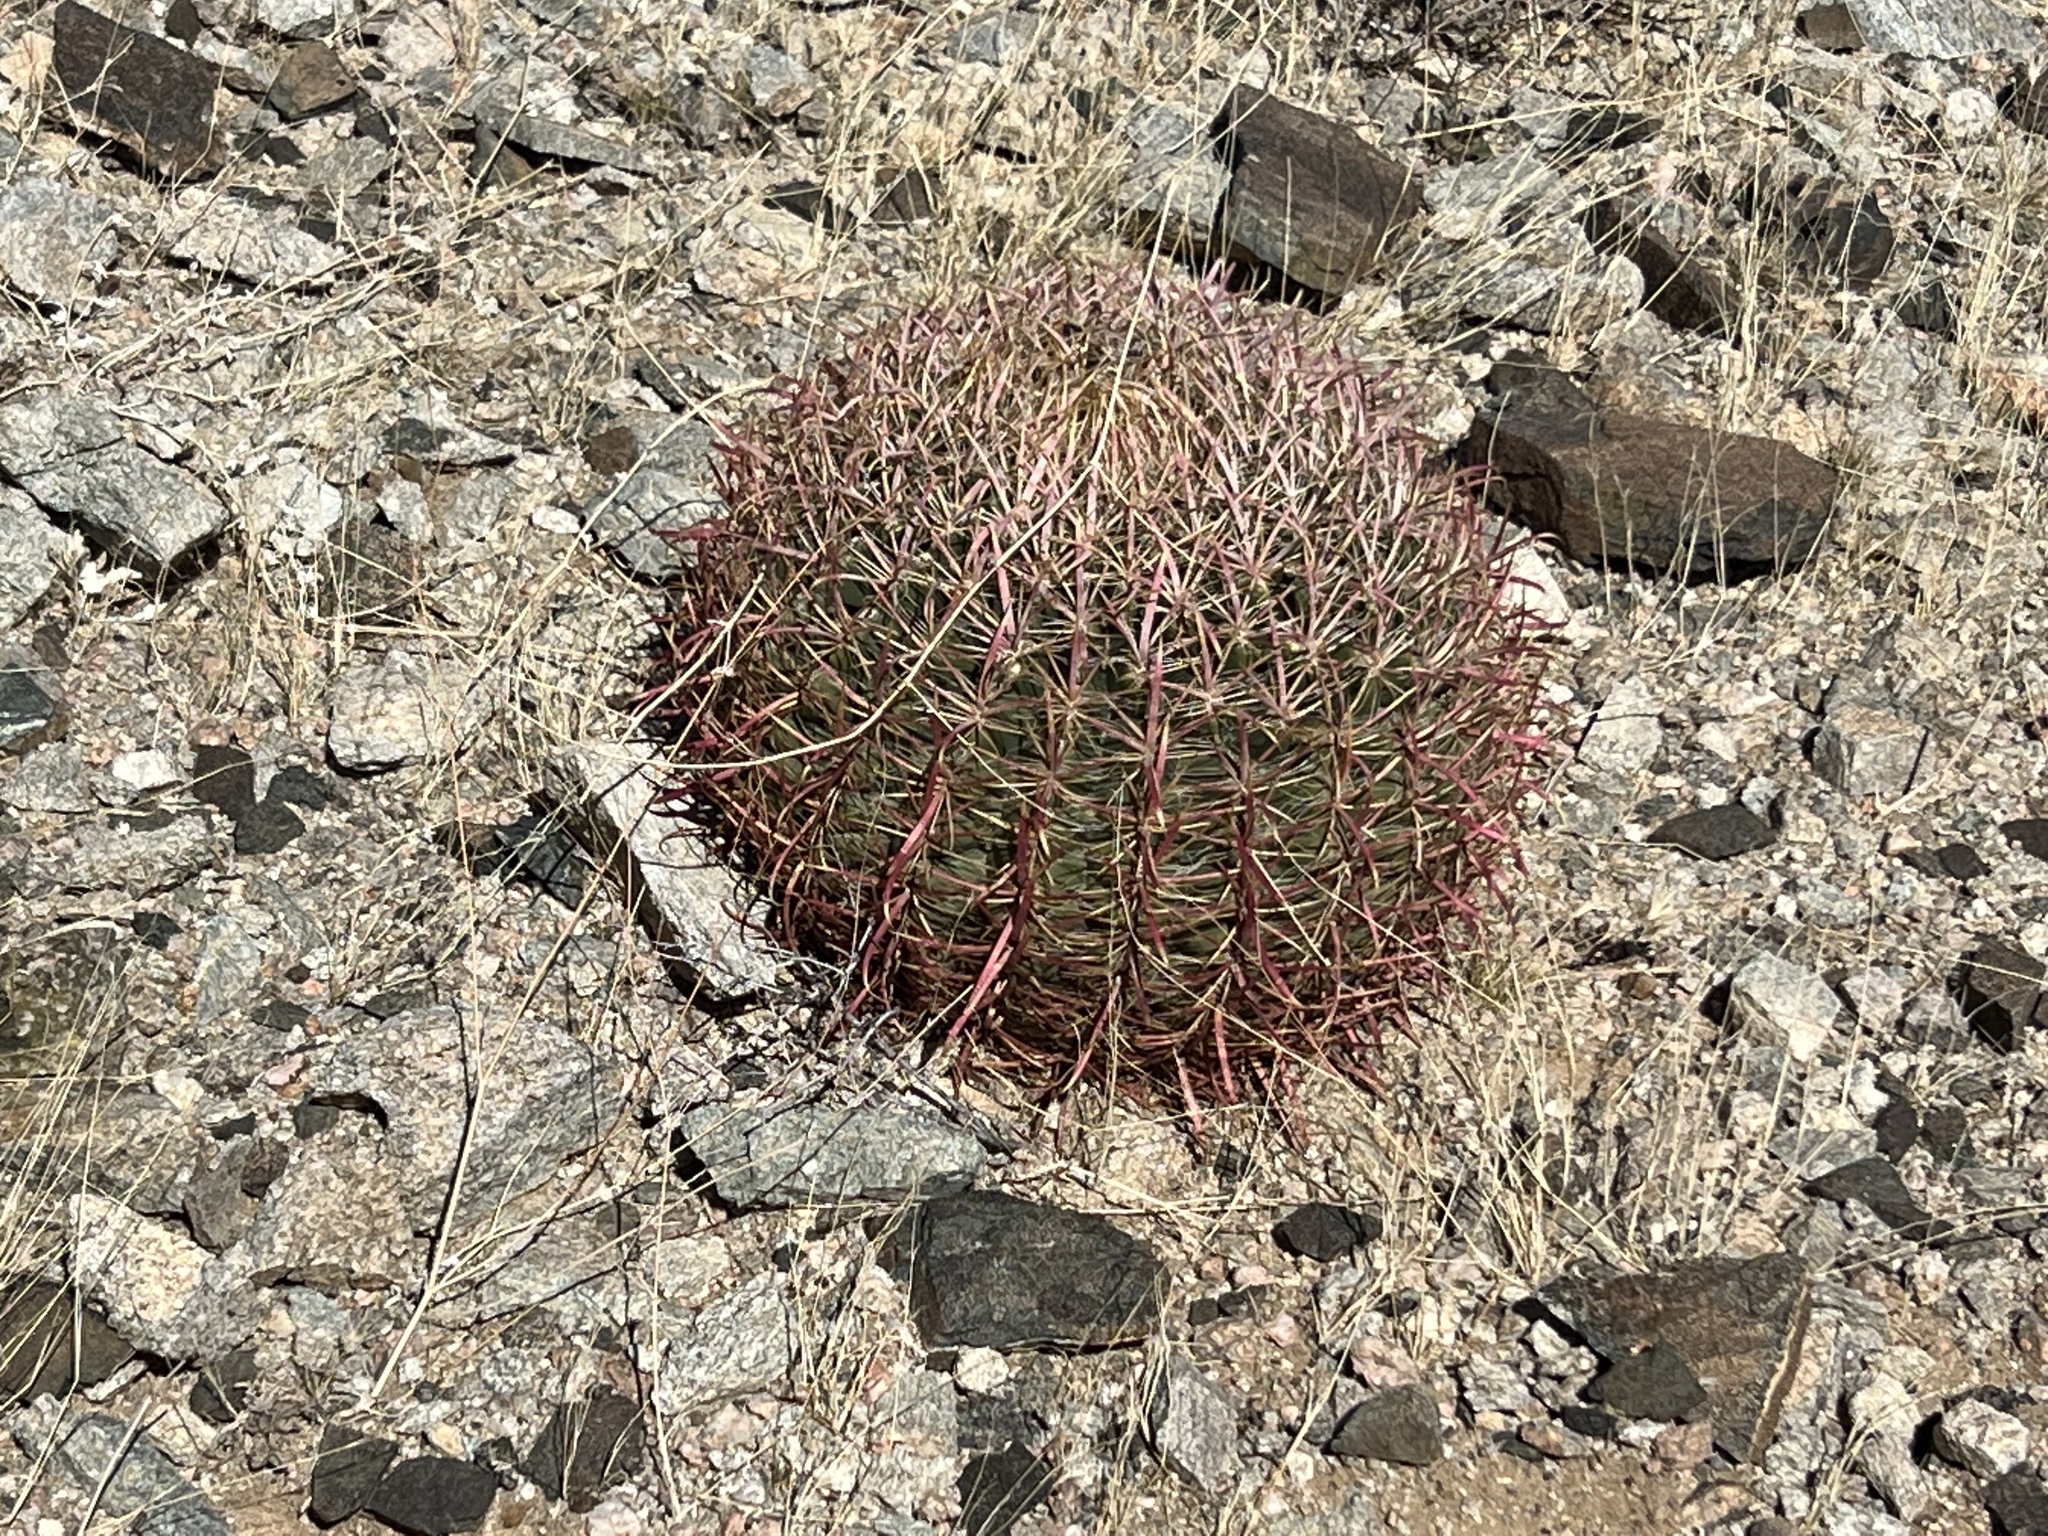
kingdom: Plantae
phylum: Tracheophyta
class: Magnoliopsida
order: Caryophyllales
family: Cactaceae
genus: Ferocactus
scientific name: Ferocactus cylindraceus
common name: California barrel cactus
